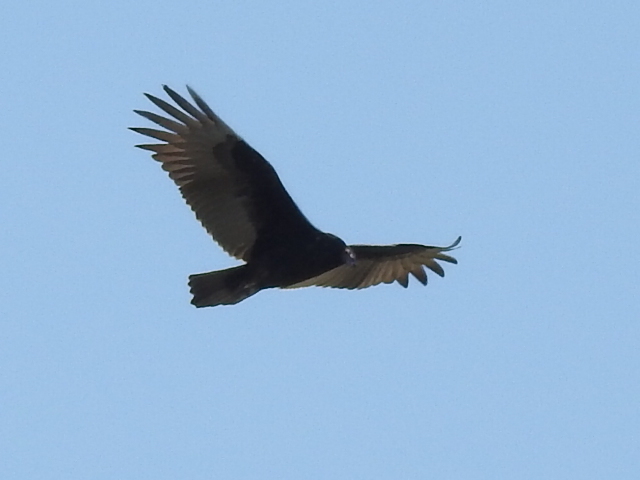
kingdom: Animalia
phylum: Chordata
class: Aves
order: Accipitriformes
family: Cathartidae
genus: Cathartes
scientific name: Cathartes aura
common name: Turkey vulture
